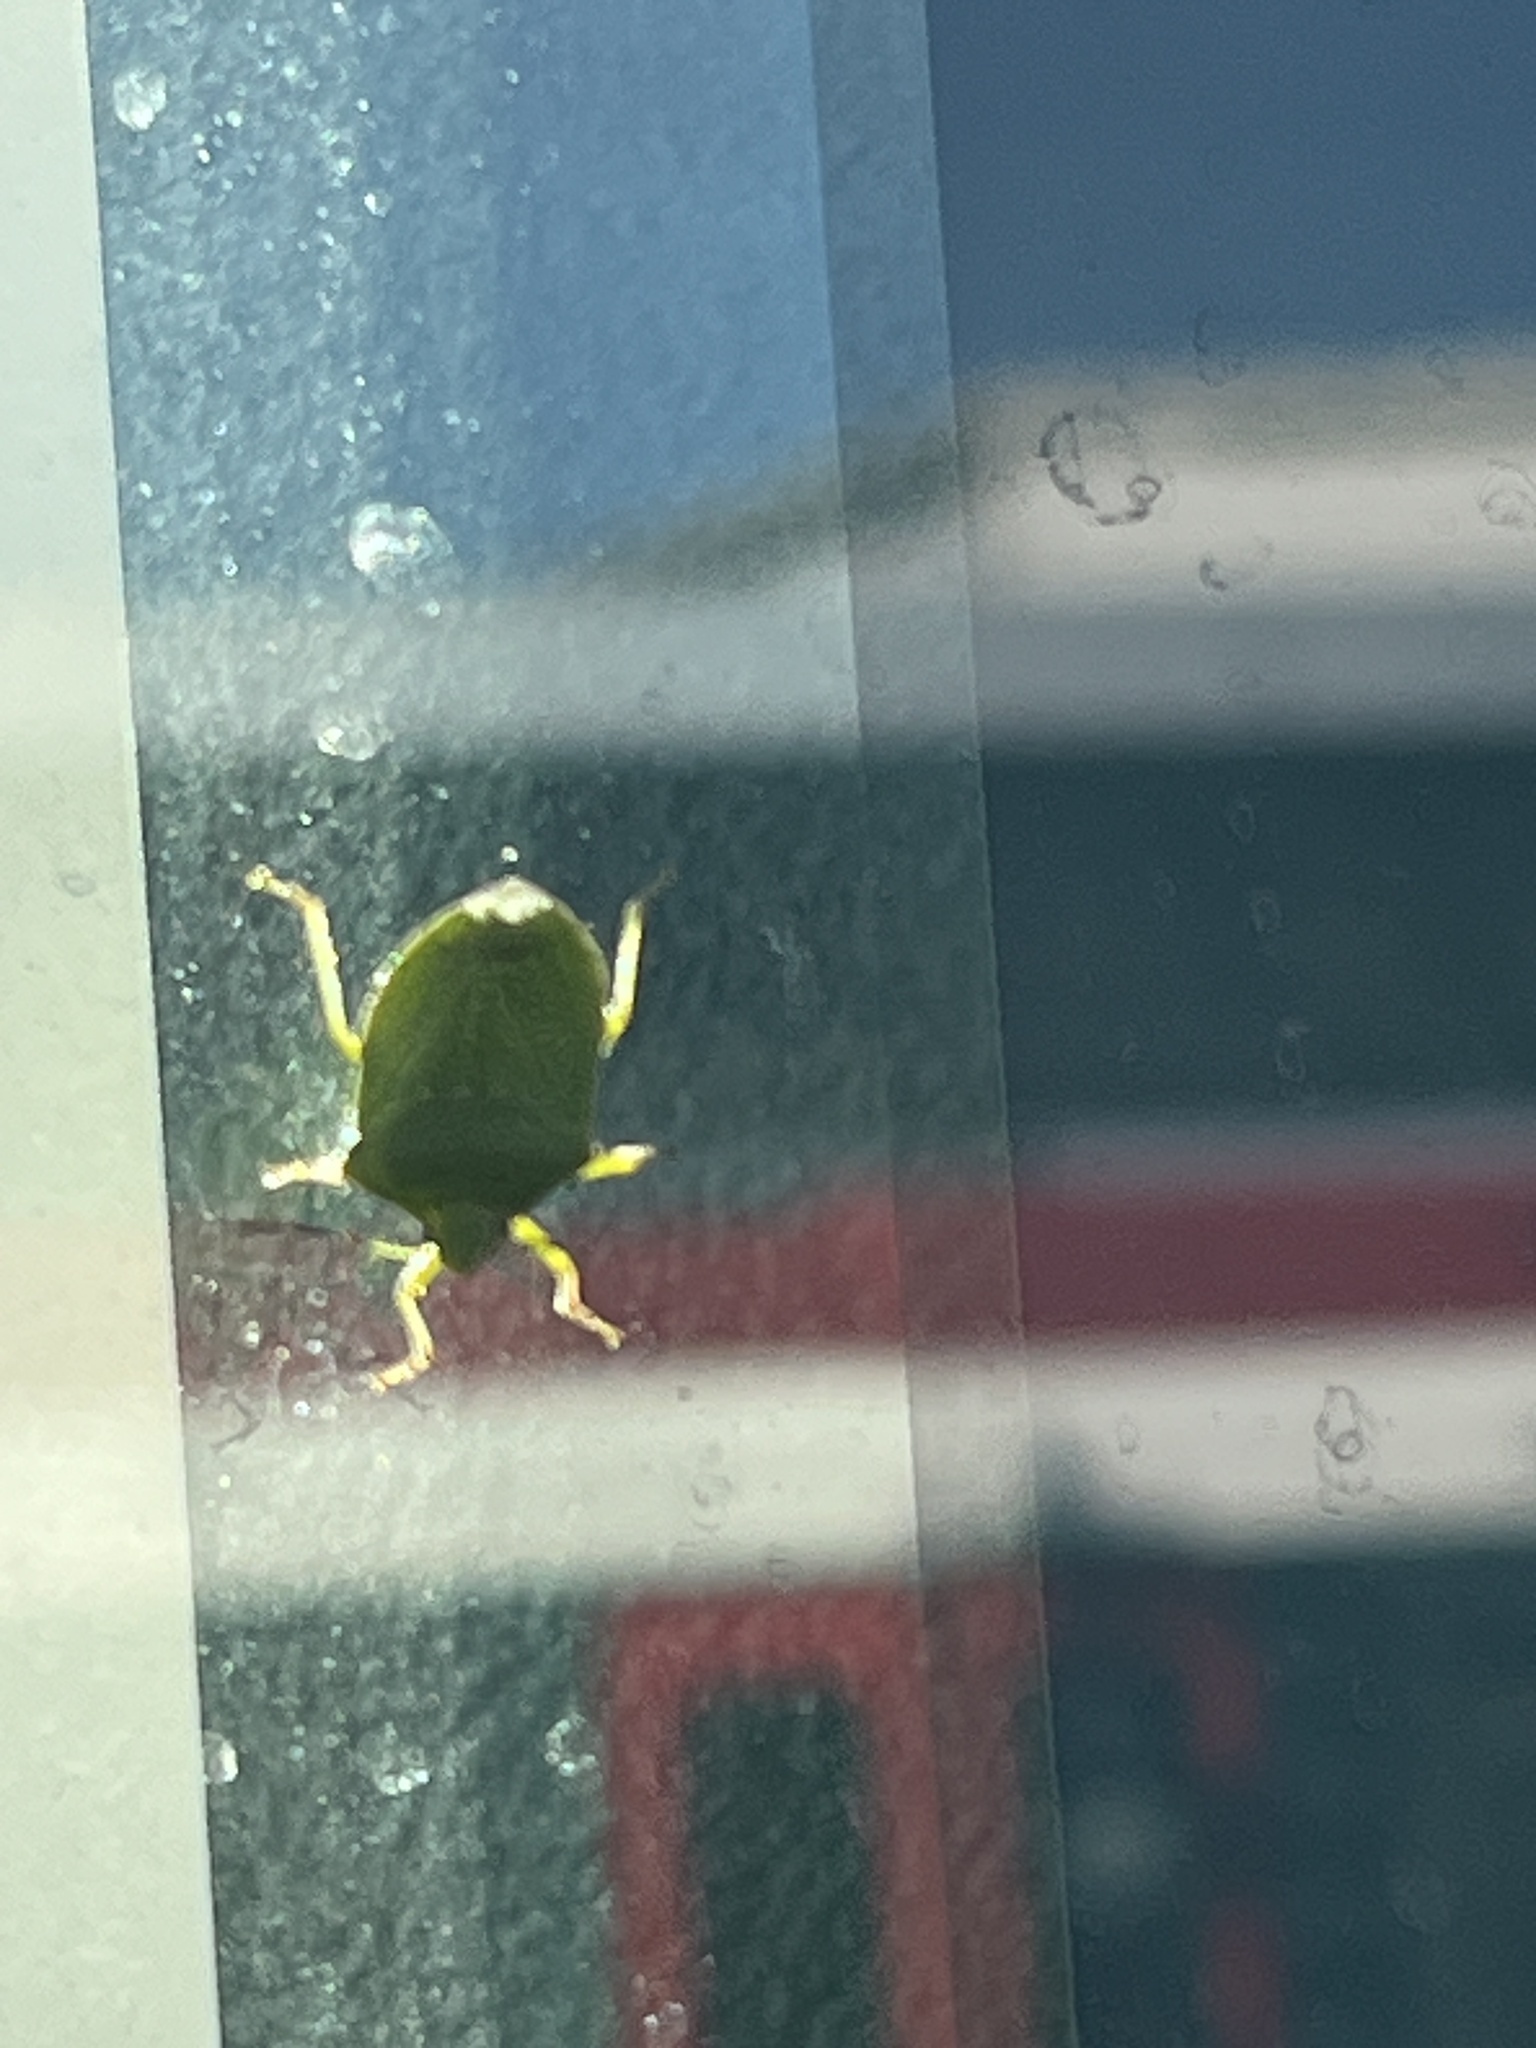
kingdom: Animalia
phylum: Arthropoda
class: Insecta
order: Hemiptera
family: Pentatomidae
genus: Nezara
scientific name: Nezara viridula
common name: Southern green stink bug
